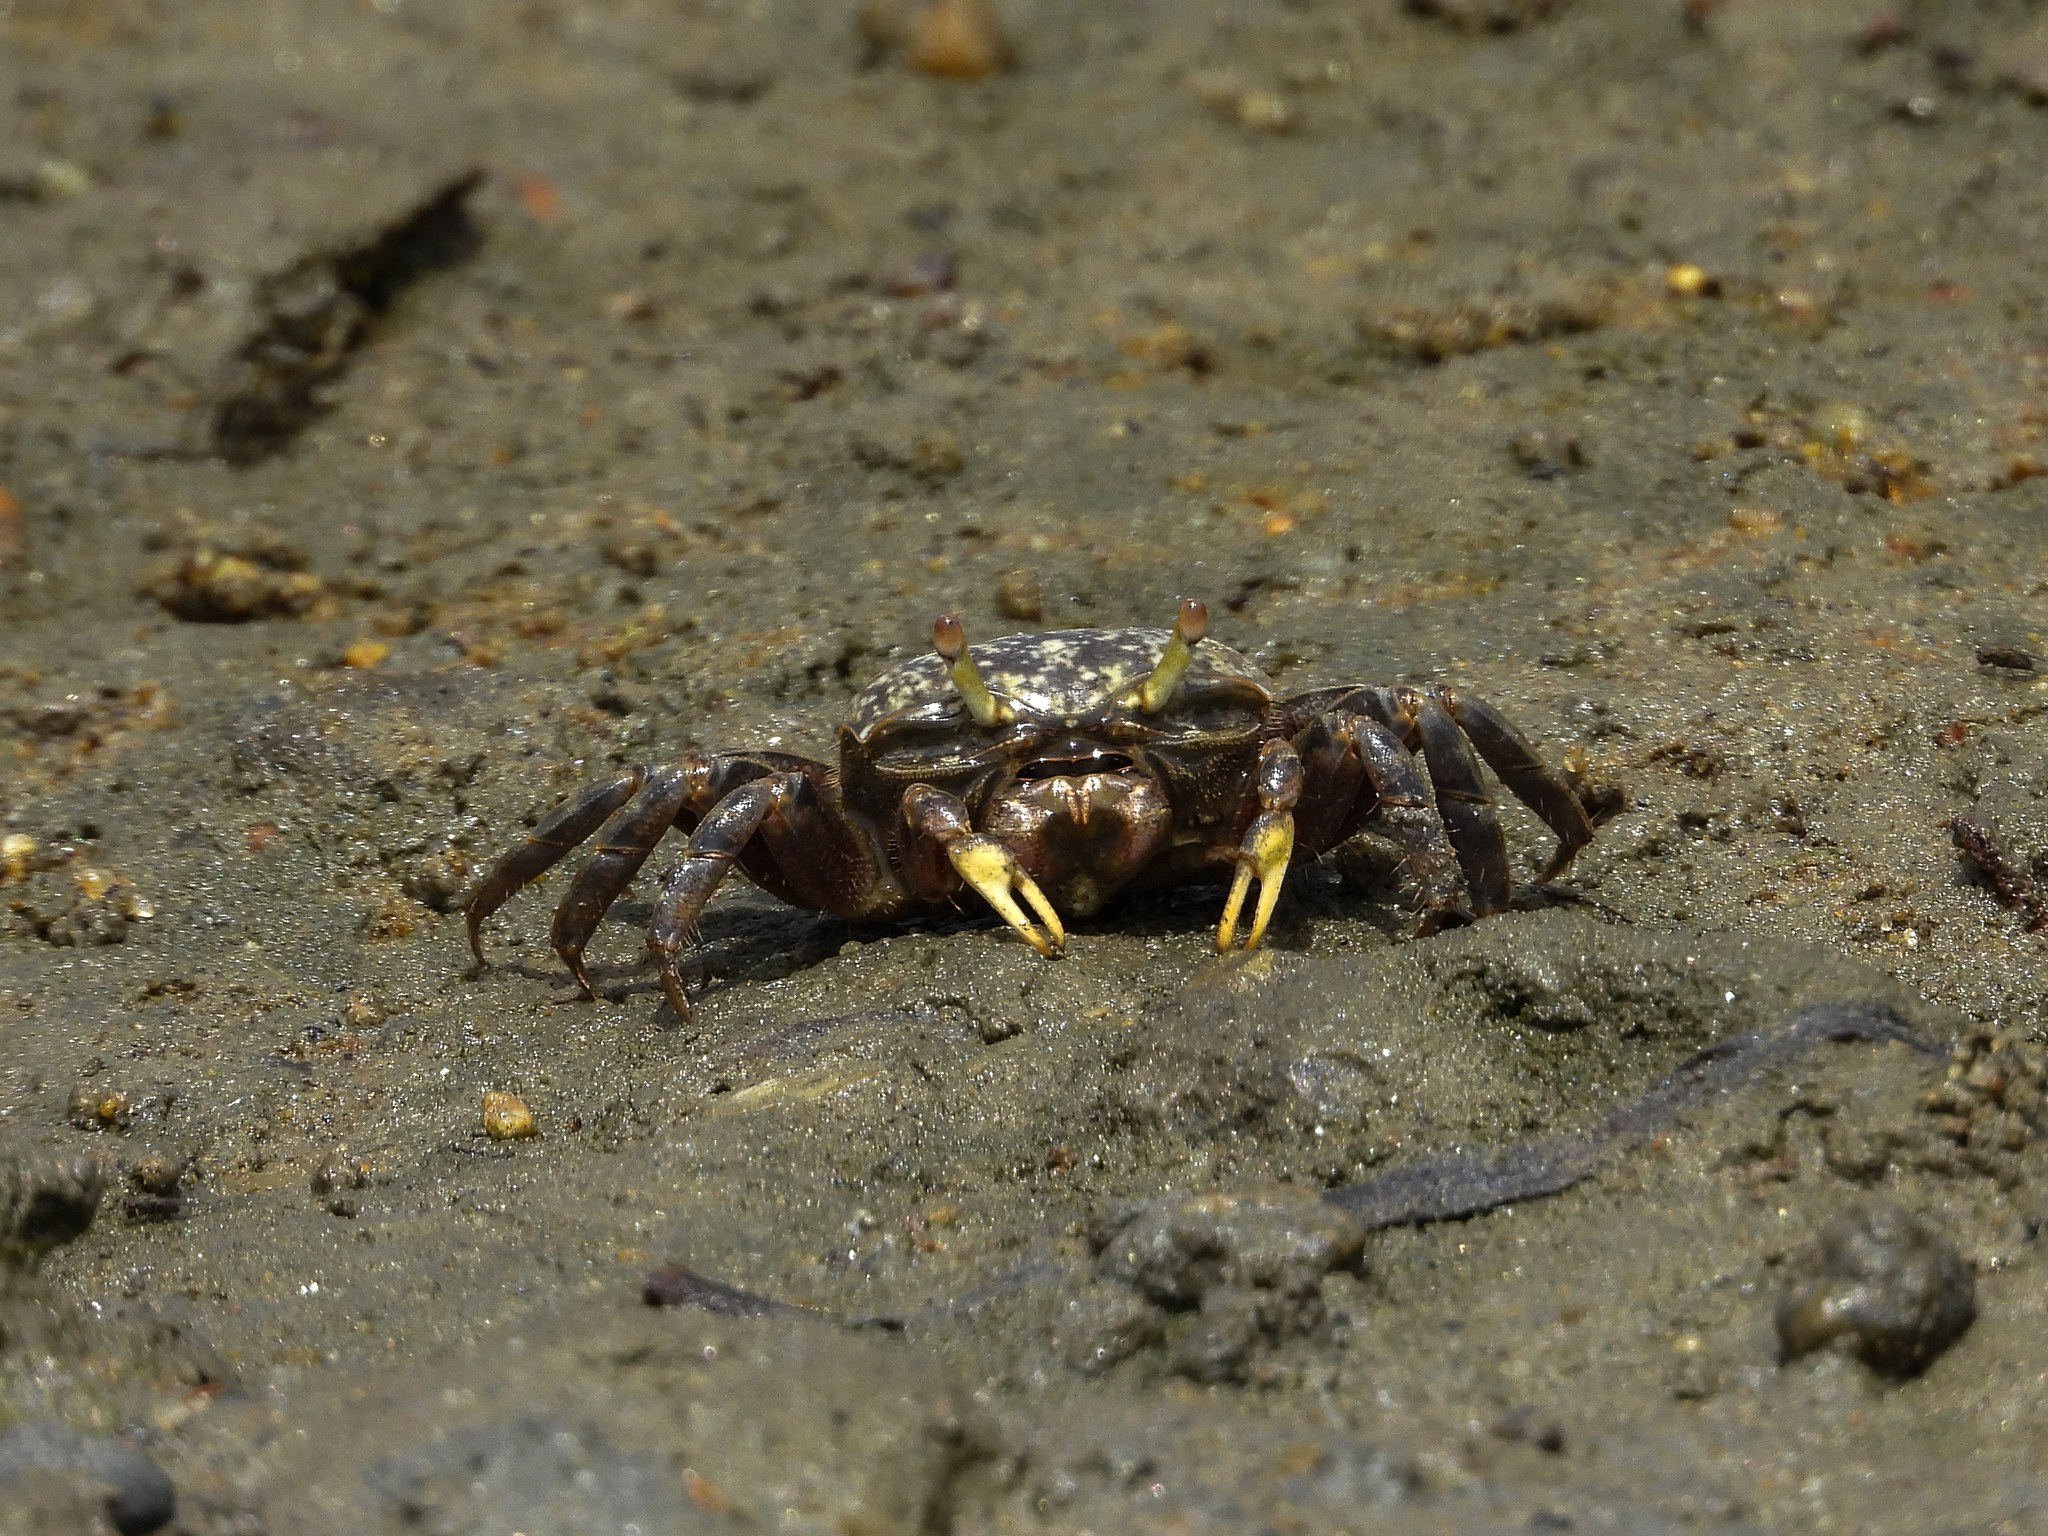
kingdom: Animalia
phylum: Arthropoda
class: Malacostraca
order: Decapoda
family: Ocypodidae
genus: Leptuca
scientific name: Leptuca crenulata
